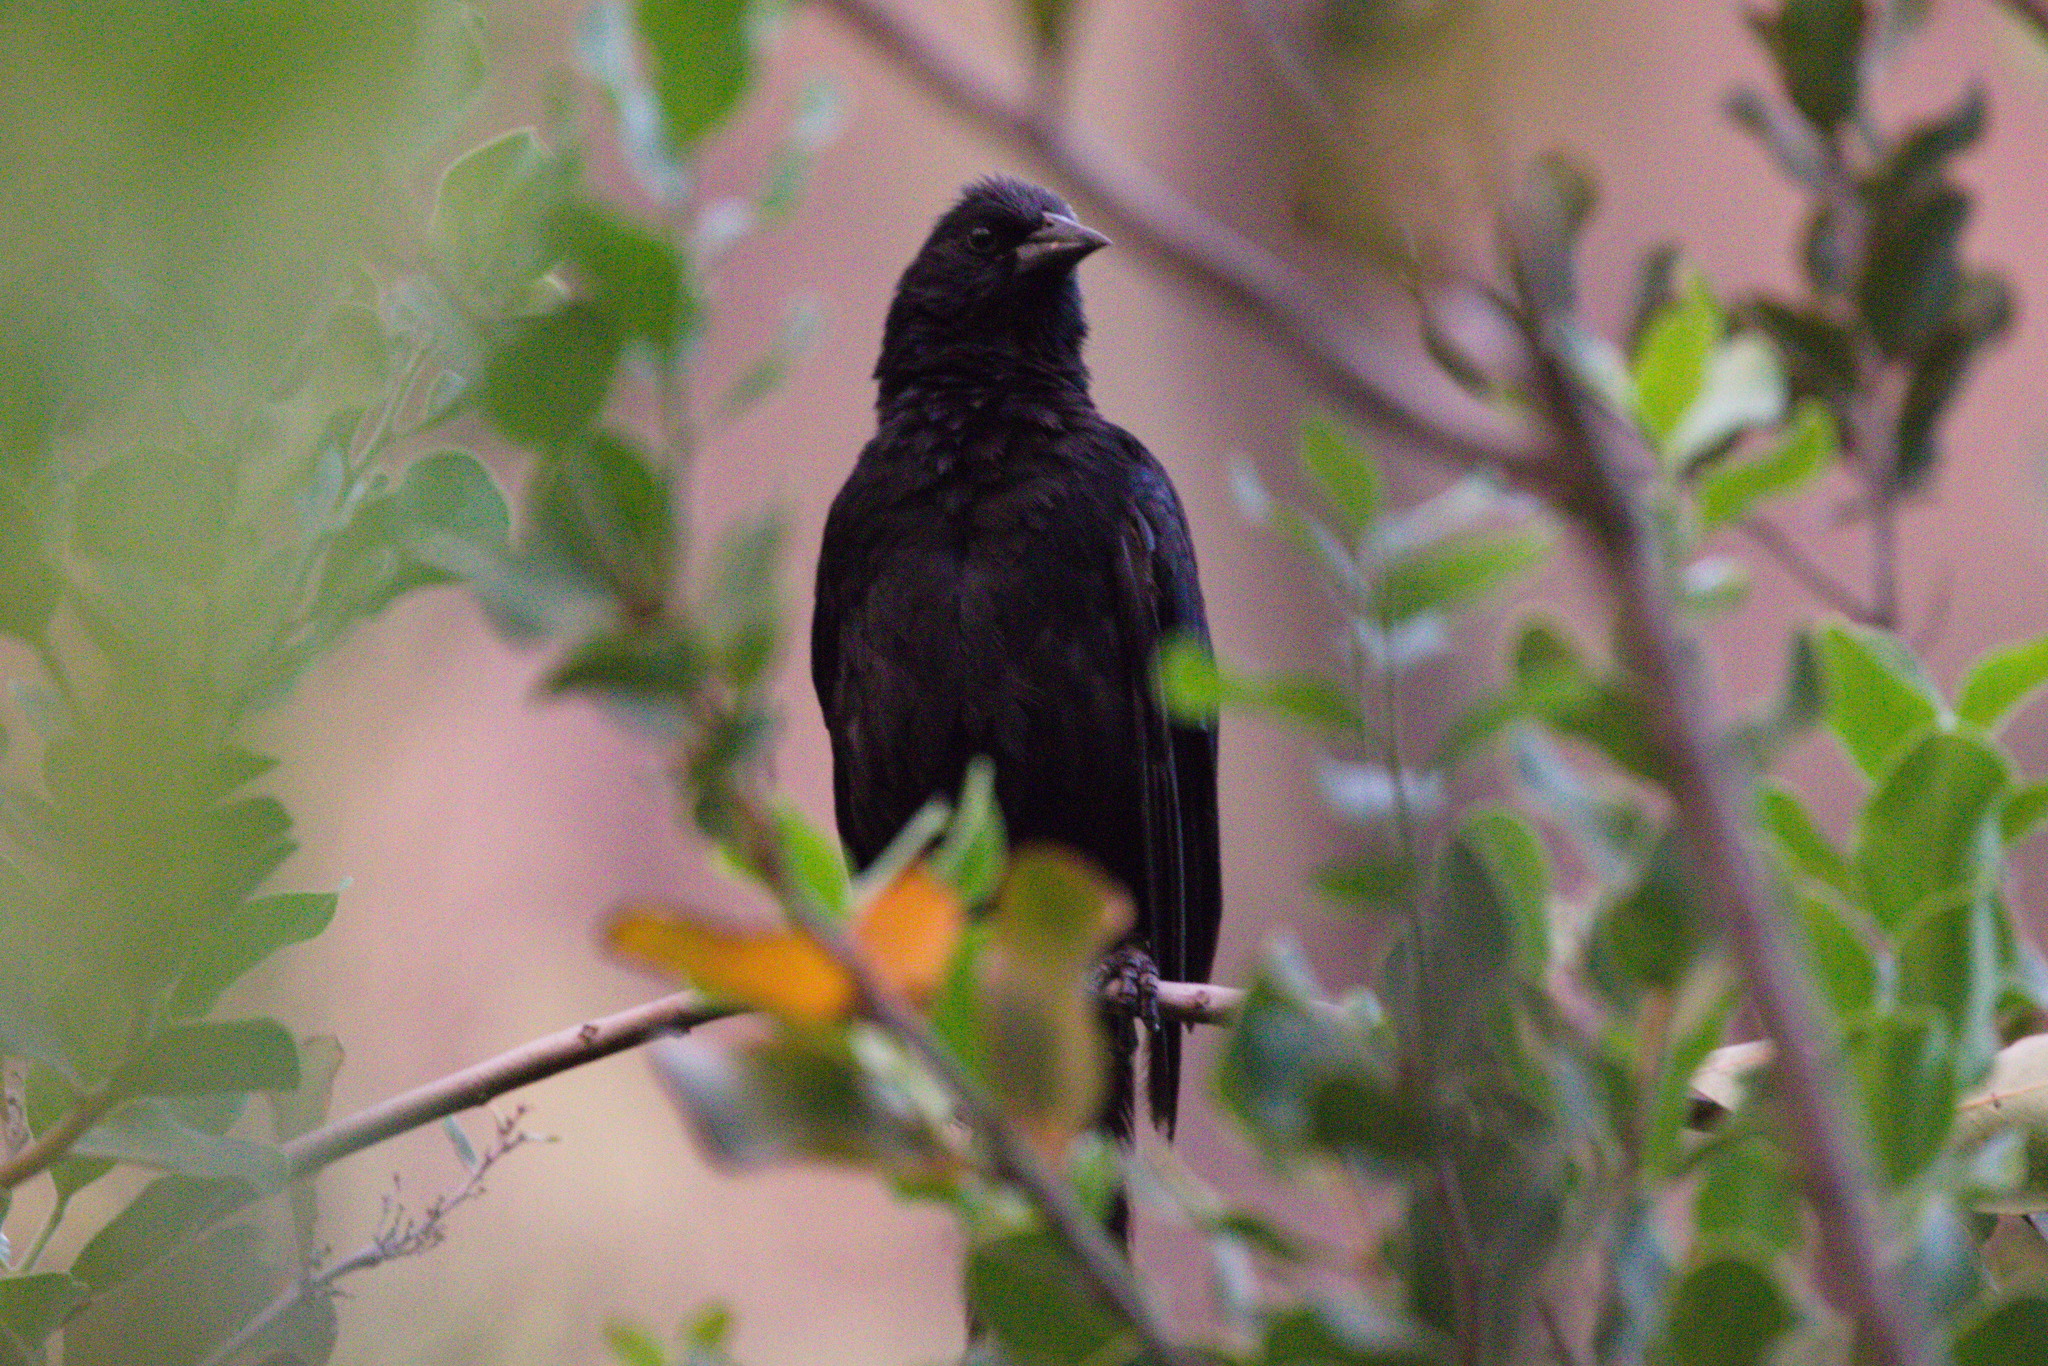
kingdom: Animalia
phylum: Chordata
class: Aves
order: Passeriformes
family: Icteridae
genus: Curaeus
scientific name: Curaeus curaeus
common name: Austral blackbird
